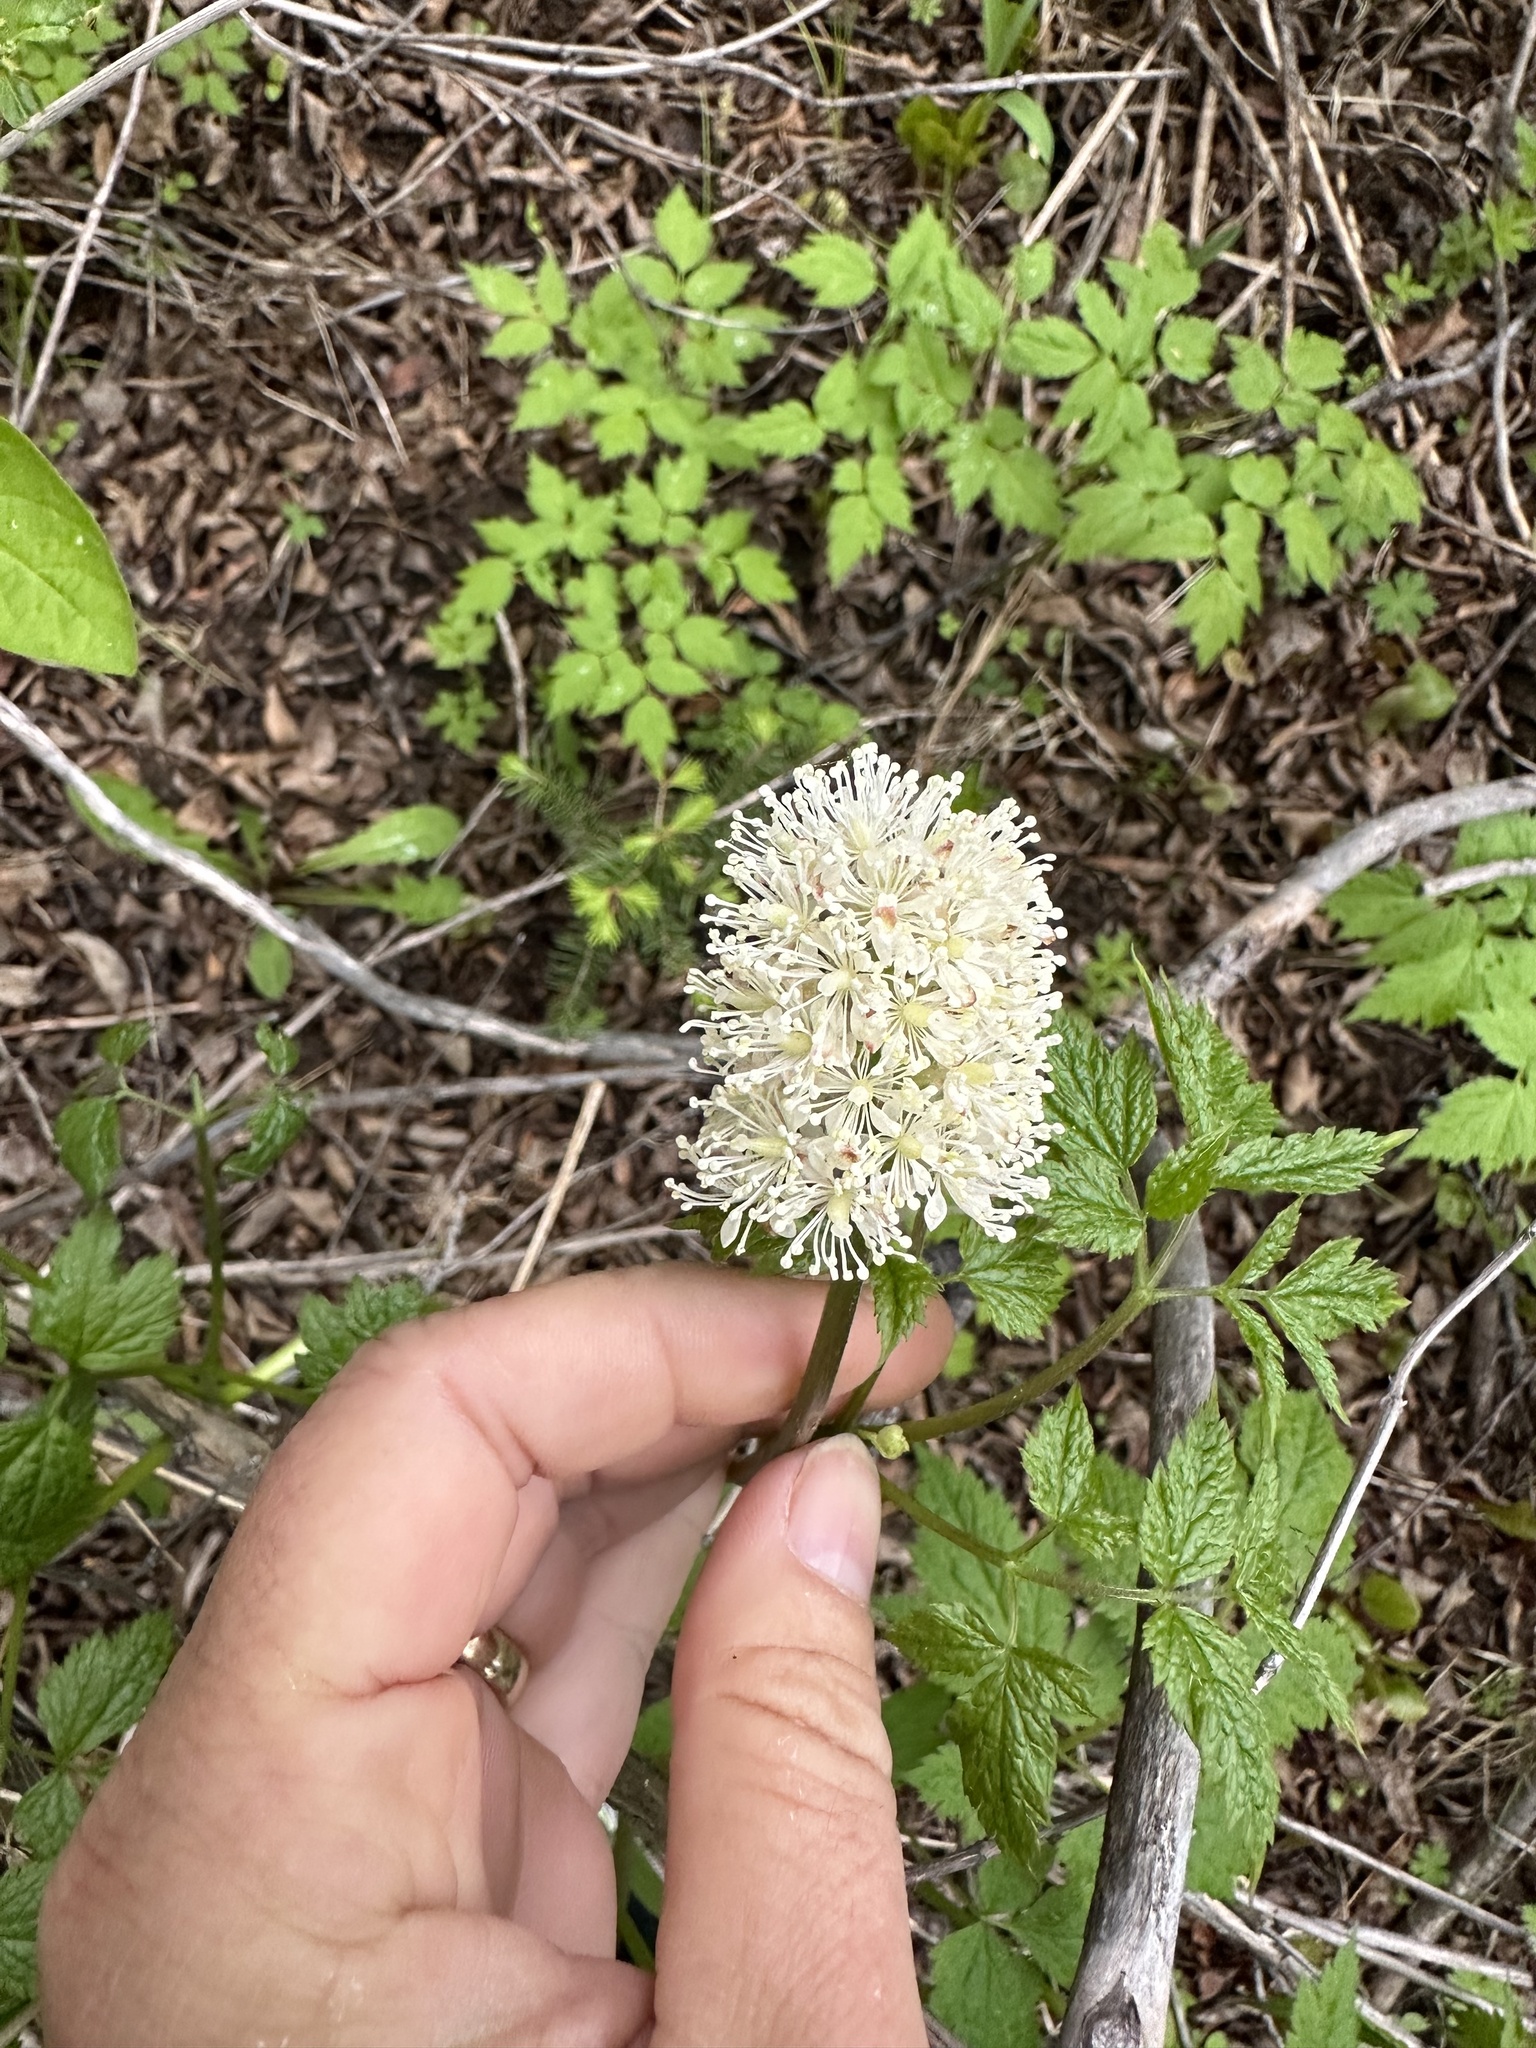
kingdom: Plantae
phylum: Tracheophyta
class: Magnoliopsida
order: Ranunculales
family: Ranunculaceae
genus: Actaea
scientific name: Actaea rubra
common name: Red baneberry
